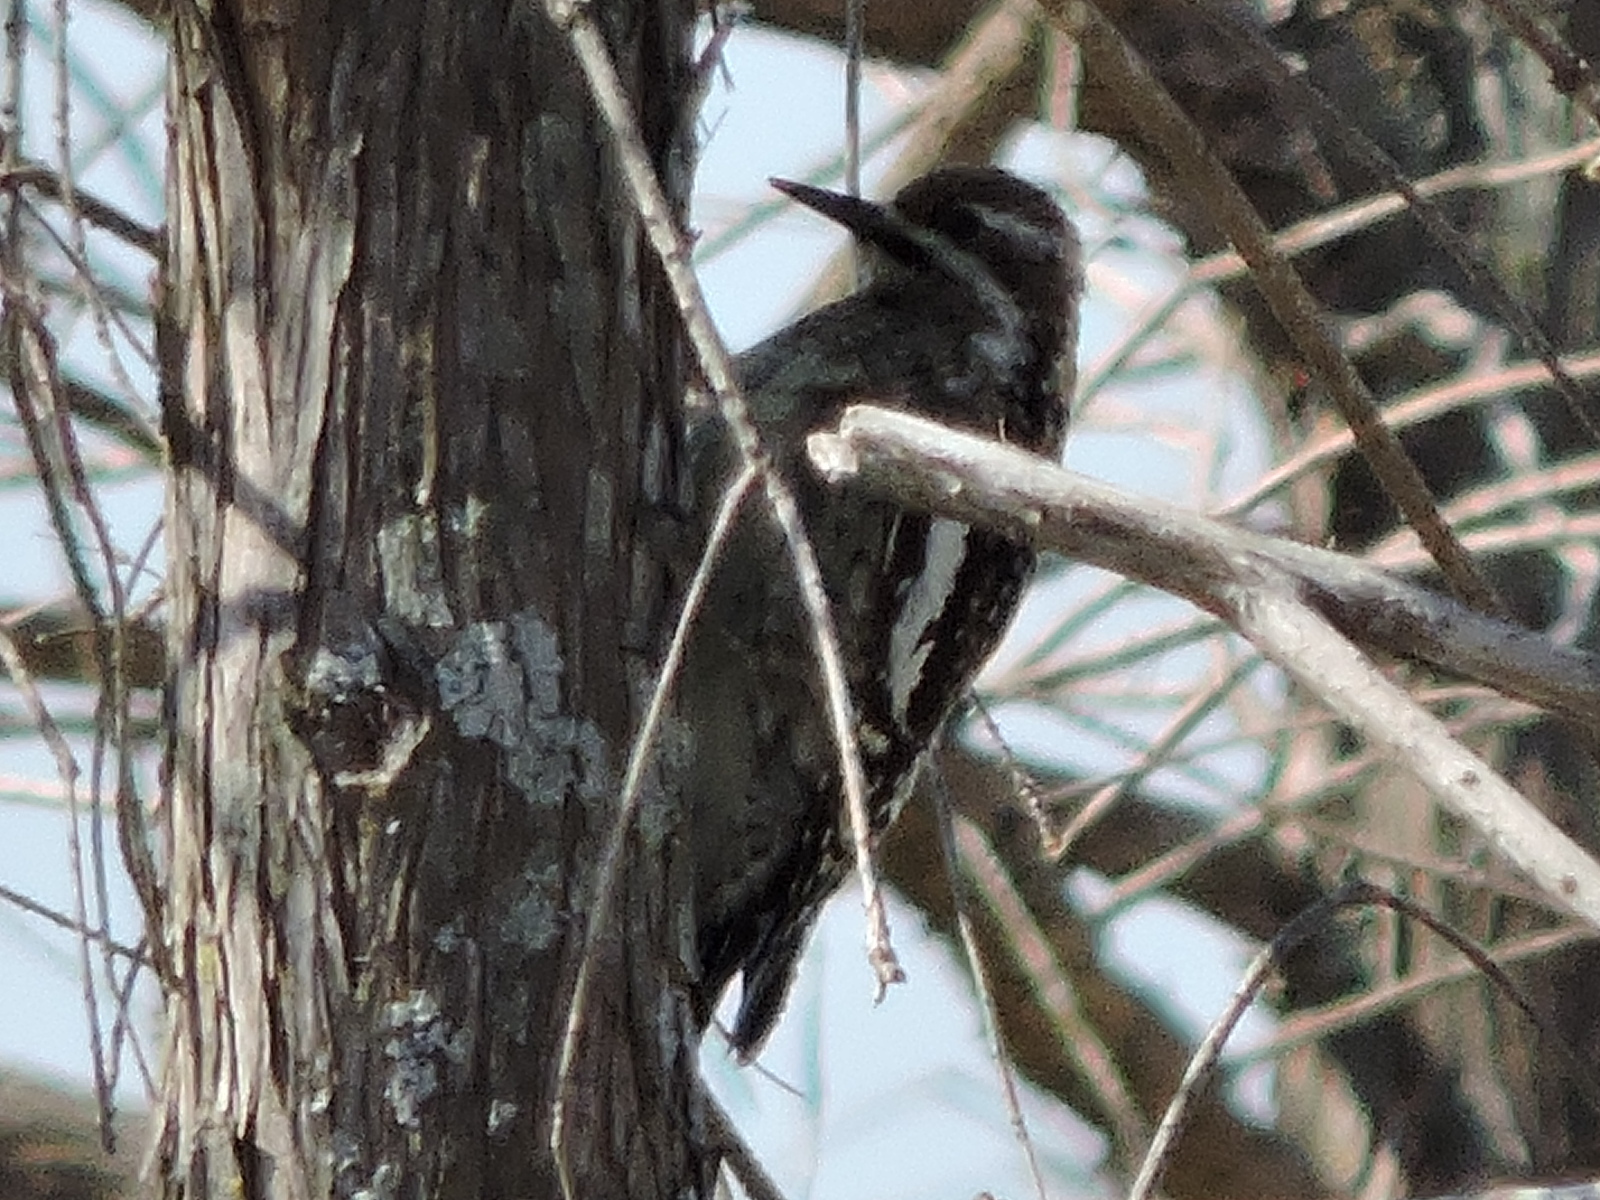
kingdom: Animalia
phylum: Chordata
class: Aves
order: Piciformes
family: Picidae
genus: Sphyrapicus
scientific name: Sphyrapicus varius
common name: Yellow-bellied sapsucker
